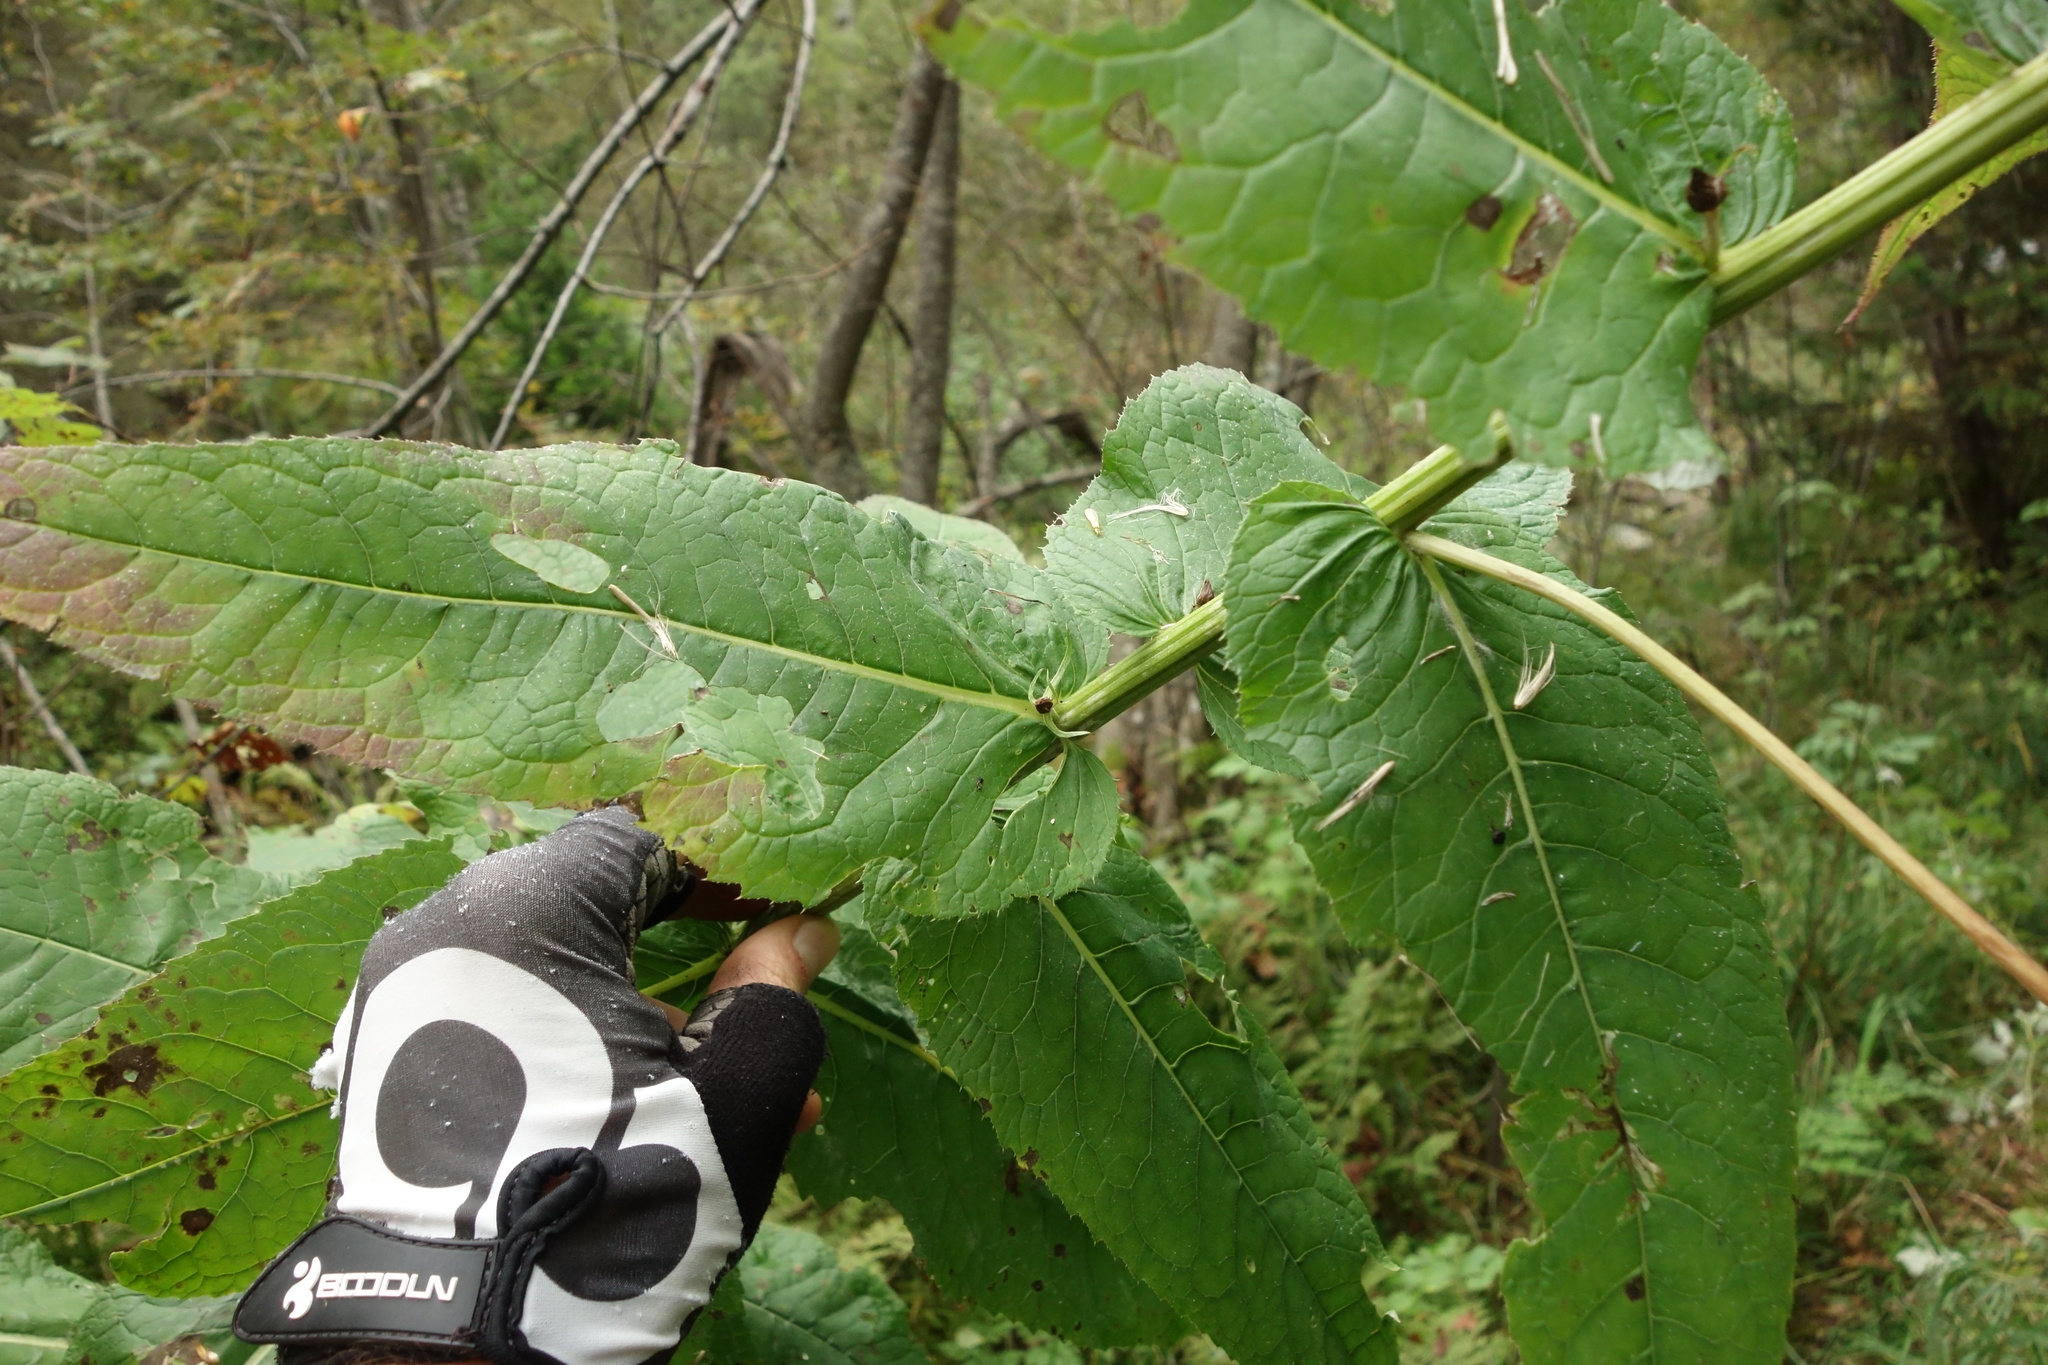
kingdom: Plantae
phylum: Tracheophyta
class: Magnoliopsida
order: Asterales
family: Asteraceae
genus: Cirsium
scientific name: Cirsium helenioides
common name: Melancholy thistle
